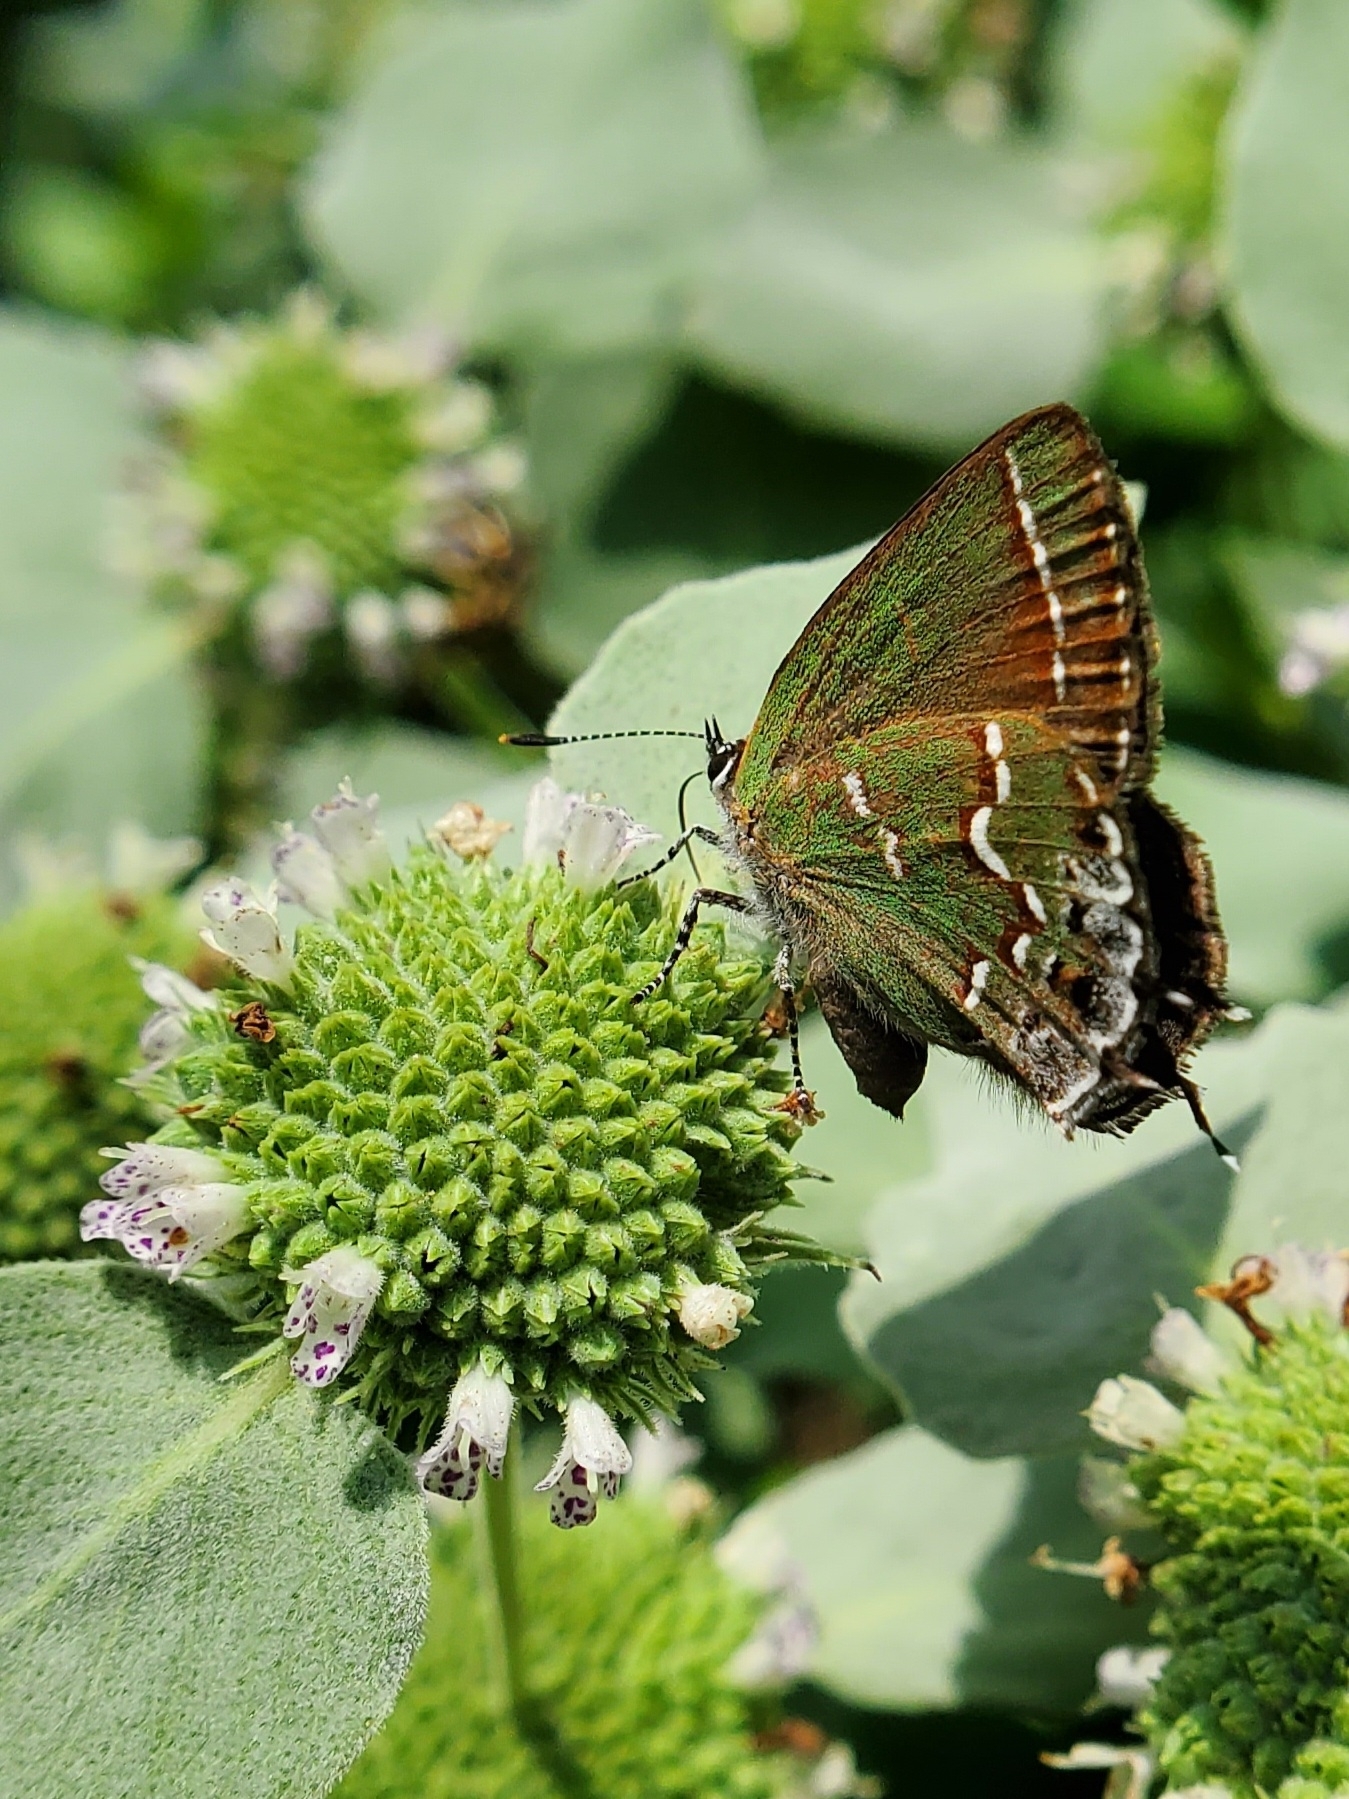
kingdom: Animalia
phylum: Arthropoda
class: Insecta
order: Lepidoptera
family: Lycaenidae
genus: Mitoura
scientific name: Mitoura gryneus
